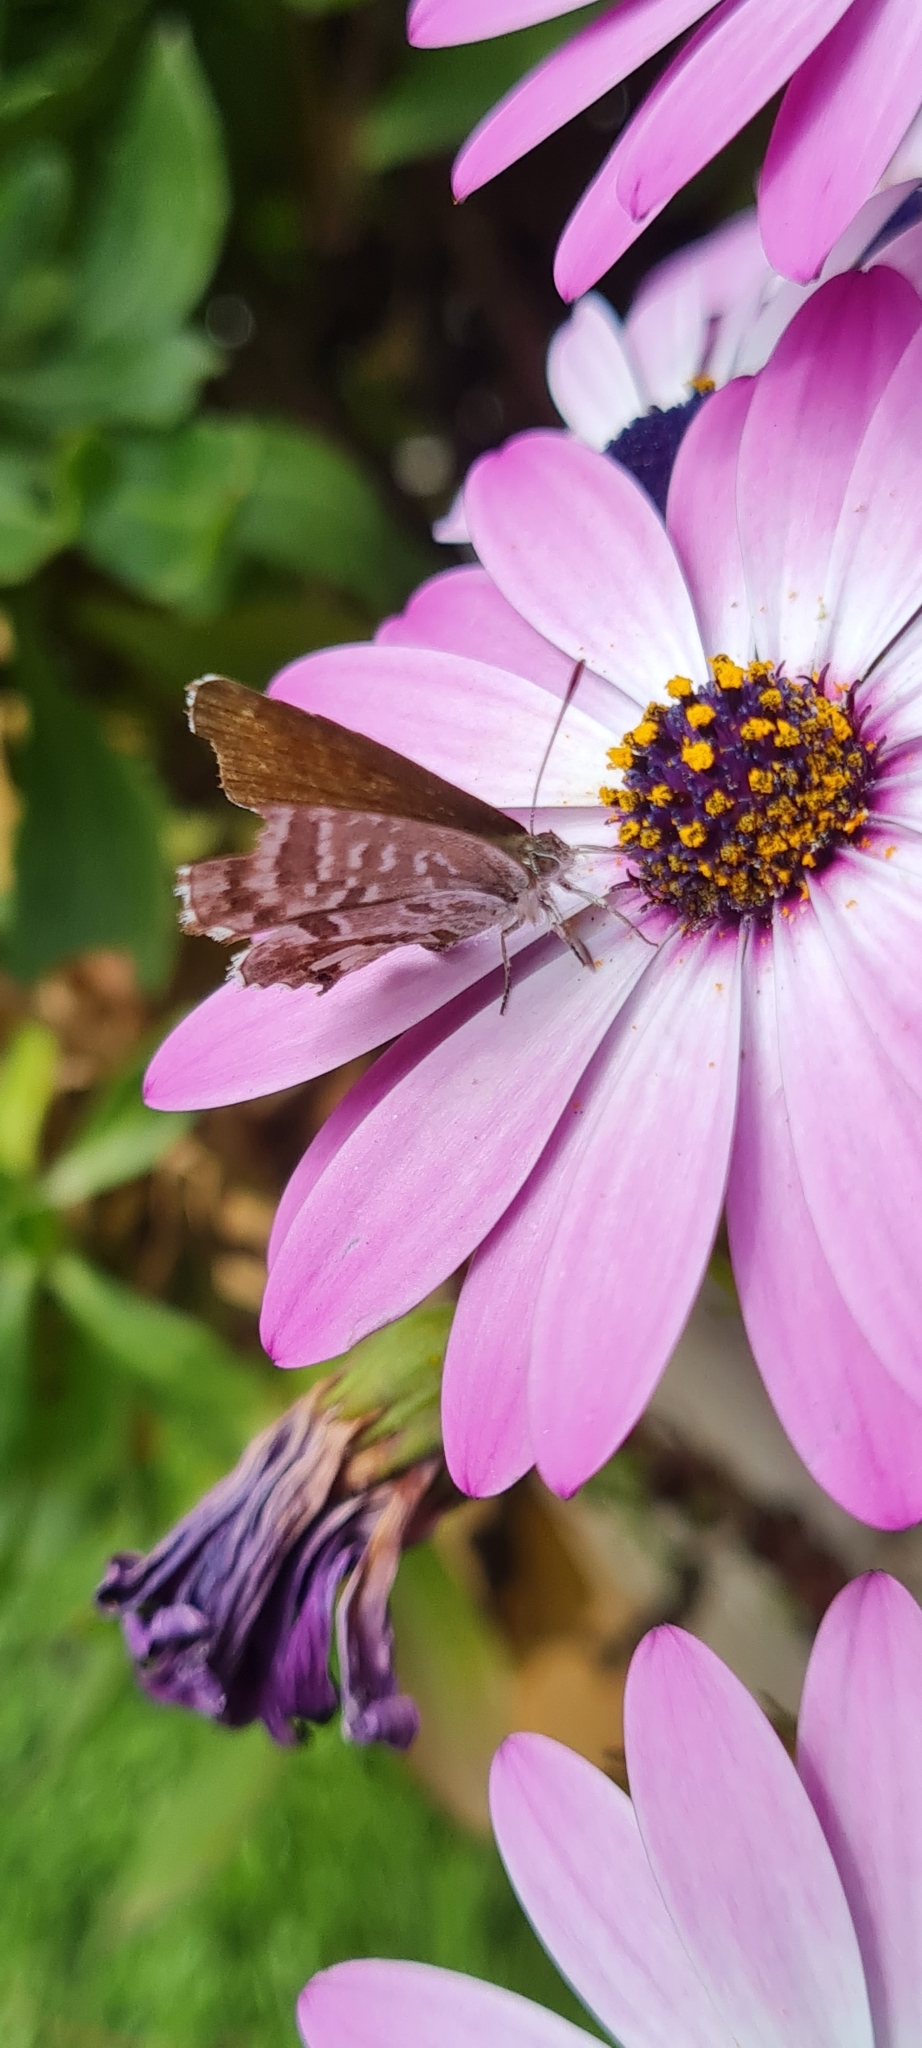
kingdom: Animalia
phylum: Arthropoda
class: Insecta
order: Lepidoptera
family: Lycaenidae
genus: Cacyreus
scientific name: Cacyreus marshalli
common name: Geranium bronze
